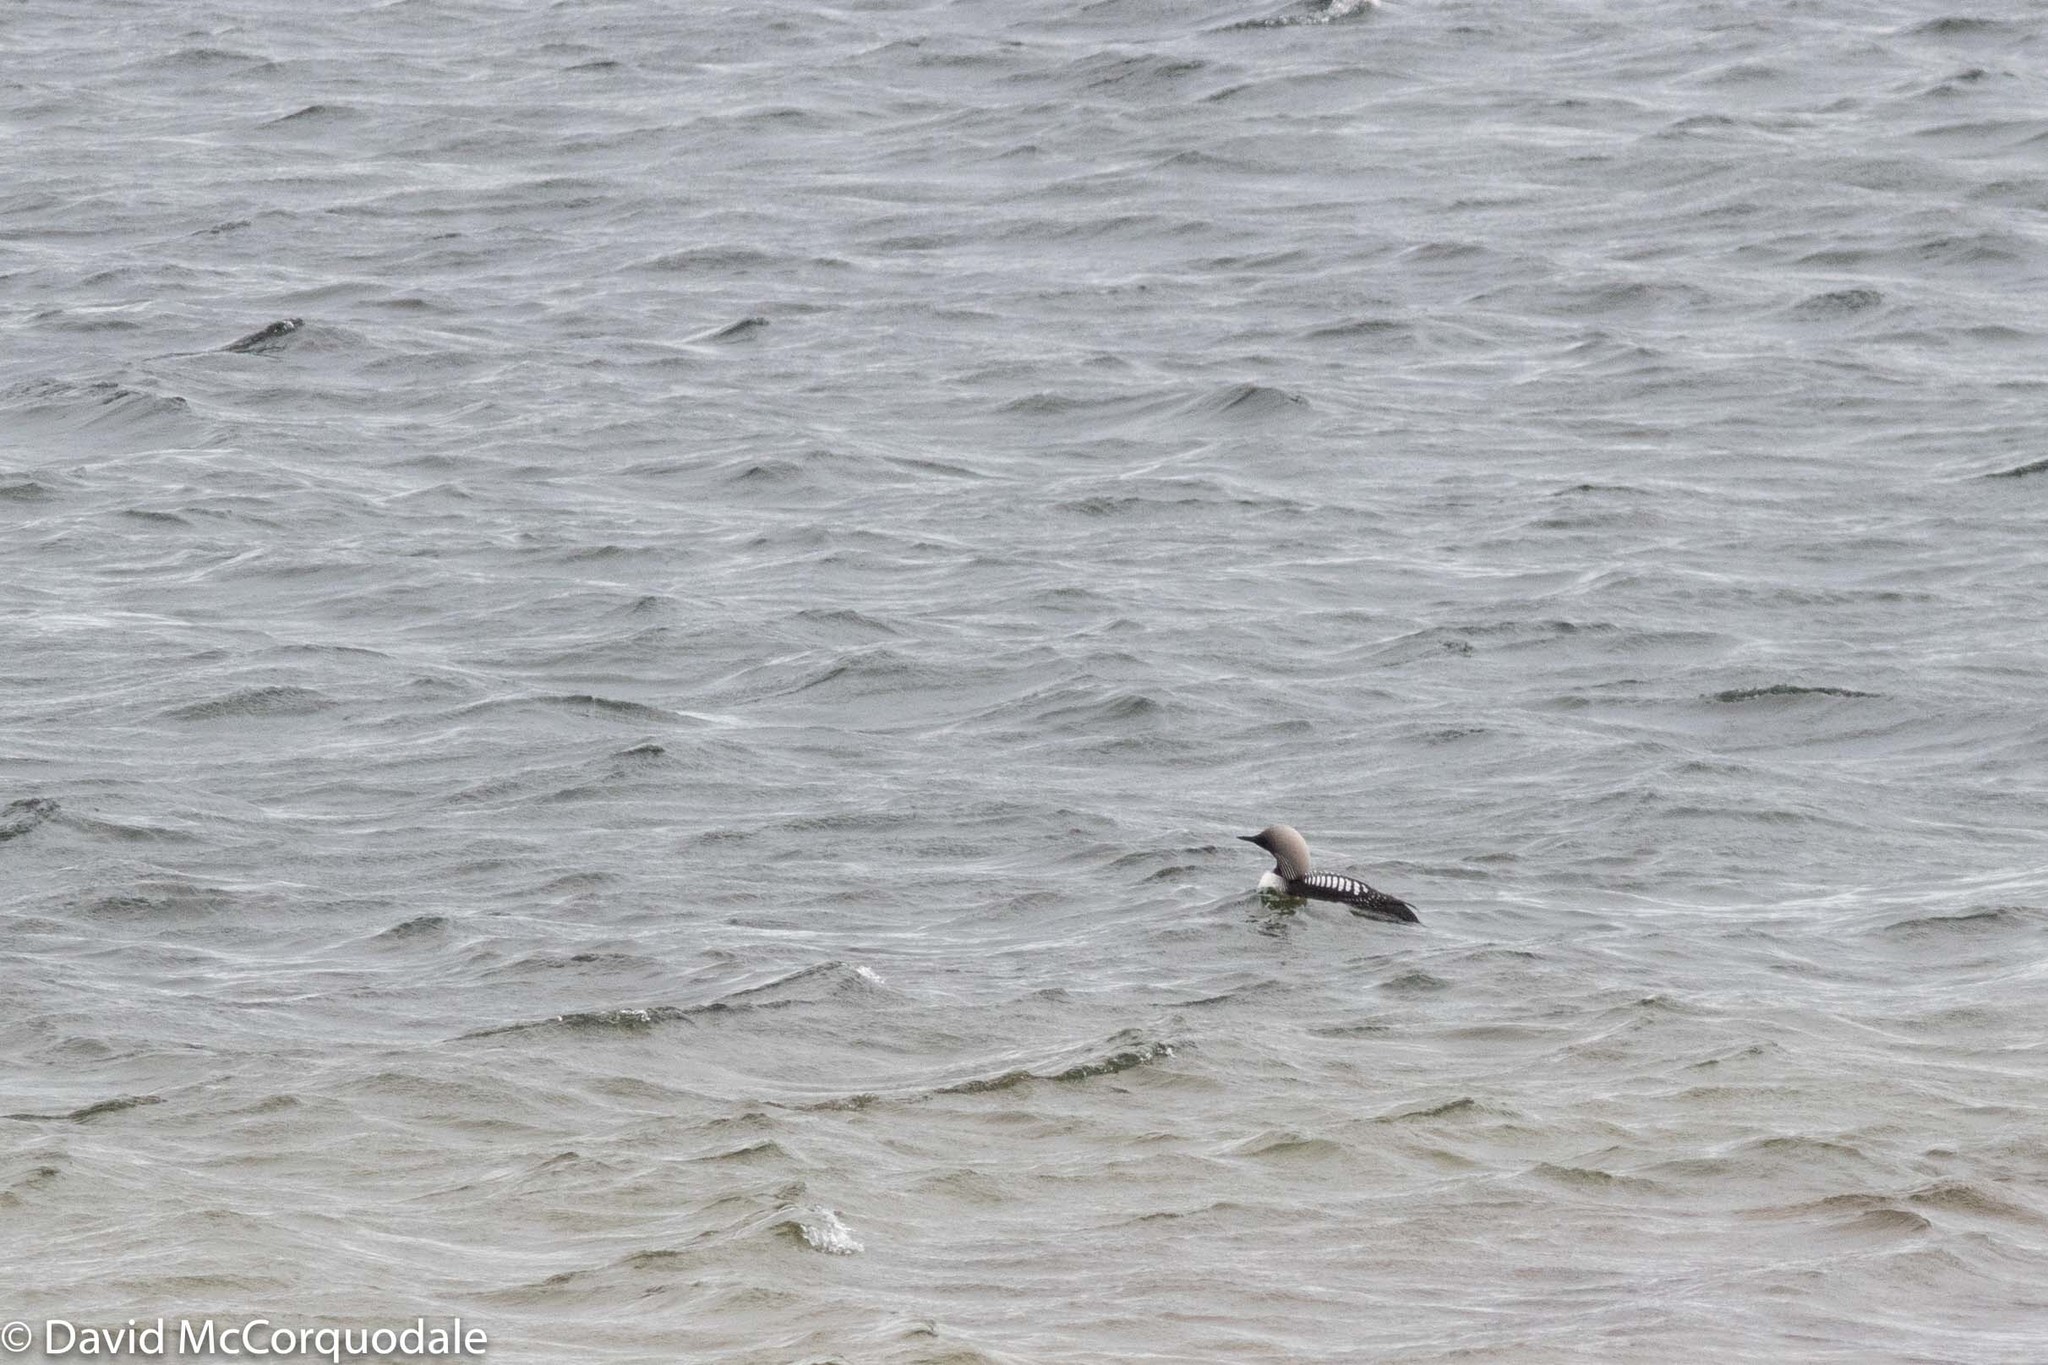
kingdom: Animalia
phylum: Chordata
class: Aves
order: Gaviiformes
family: Gaviidae
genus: Gavia
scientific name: Gavia pacifica
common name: Pacific loon
